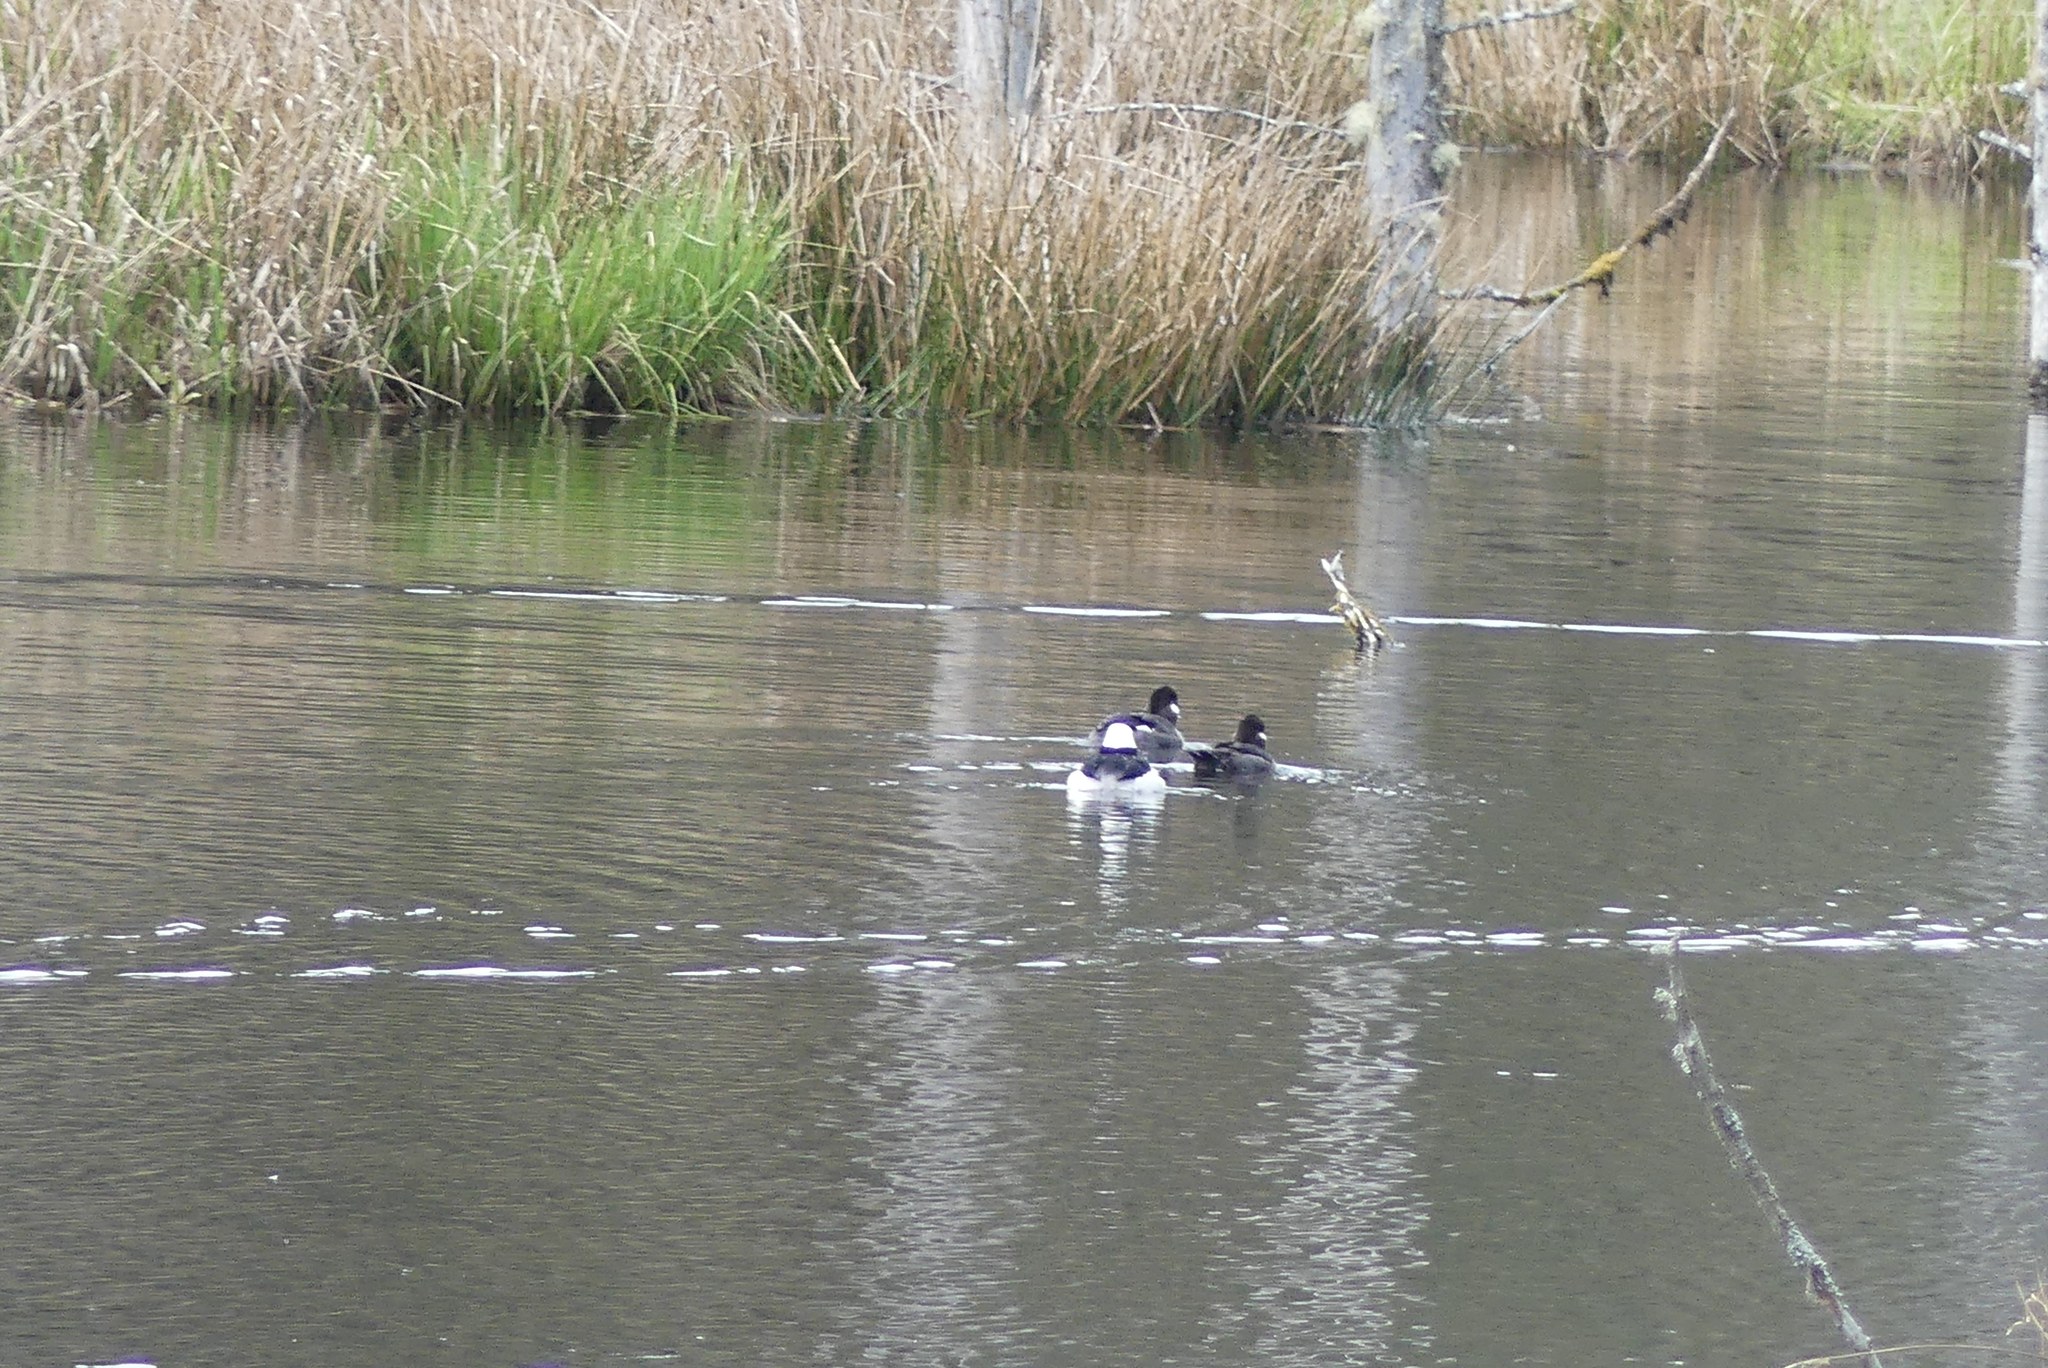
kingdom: Animalia
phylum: Chordata
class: Aves
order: Anseriformes
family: Anatidae
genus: Bucephala
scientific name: Bucephala albeola
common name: Bufflehead
